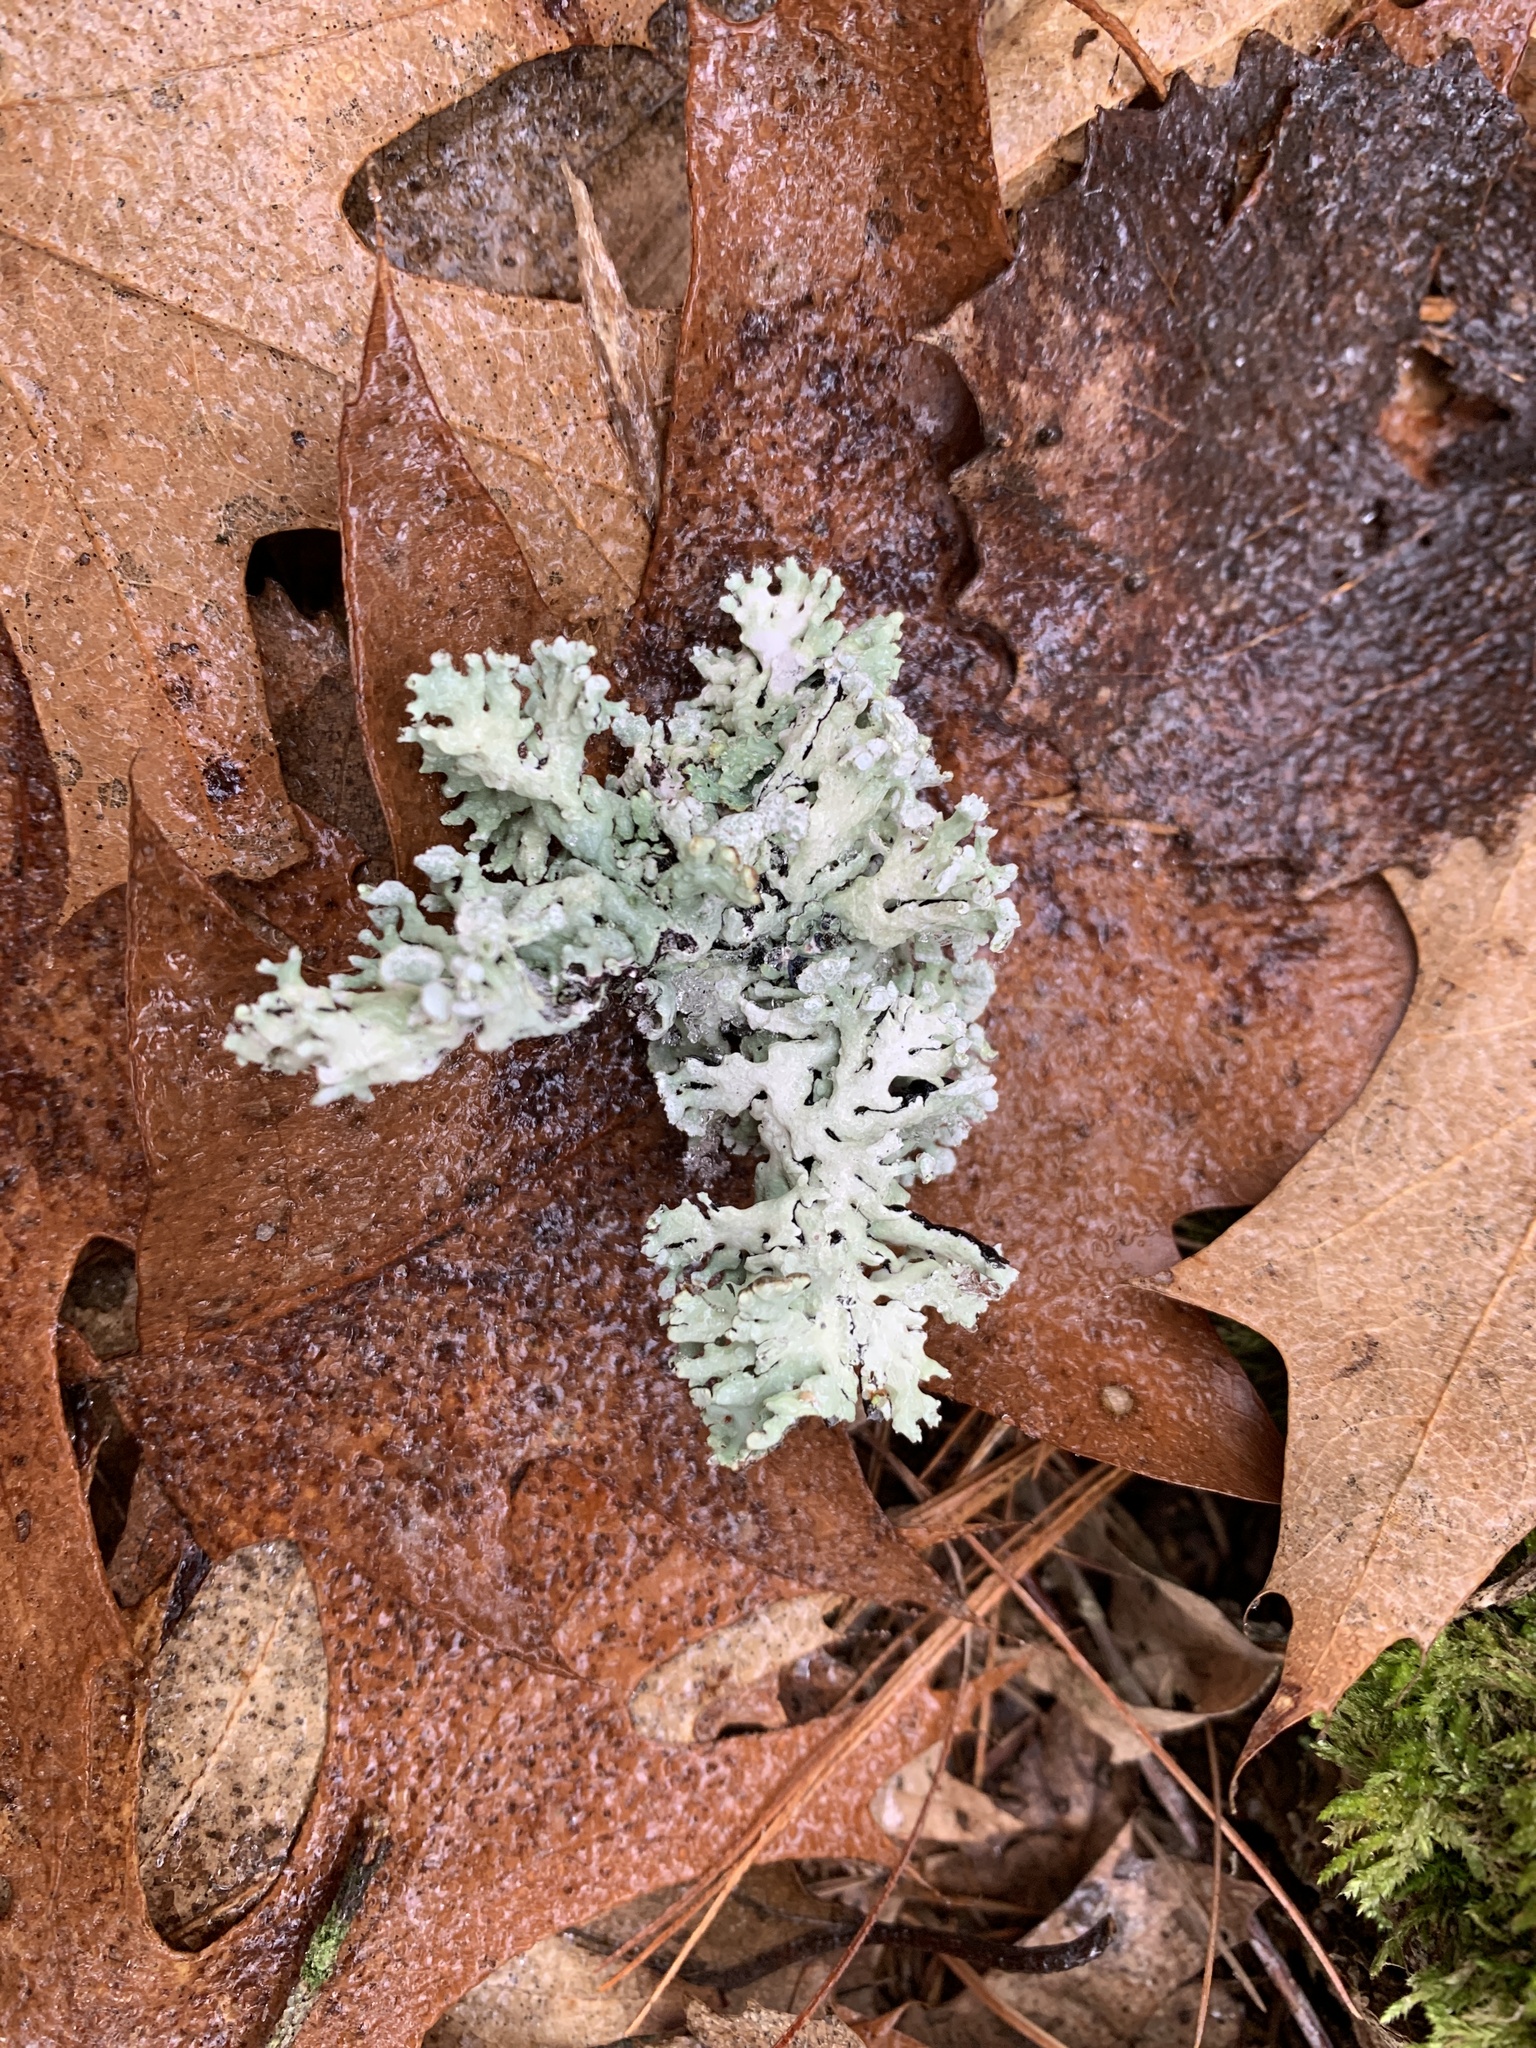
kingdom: Fungi
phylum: Ascomycota
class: Lecanoromycetes
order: Lecanorales
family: Parmeliaceae
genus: Hypogymnia
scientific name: Hypogymnia physodes
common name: Dark crottle
